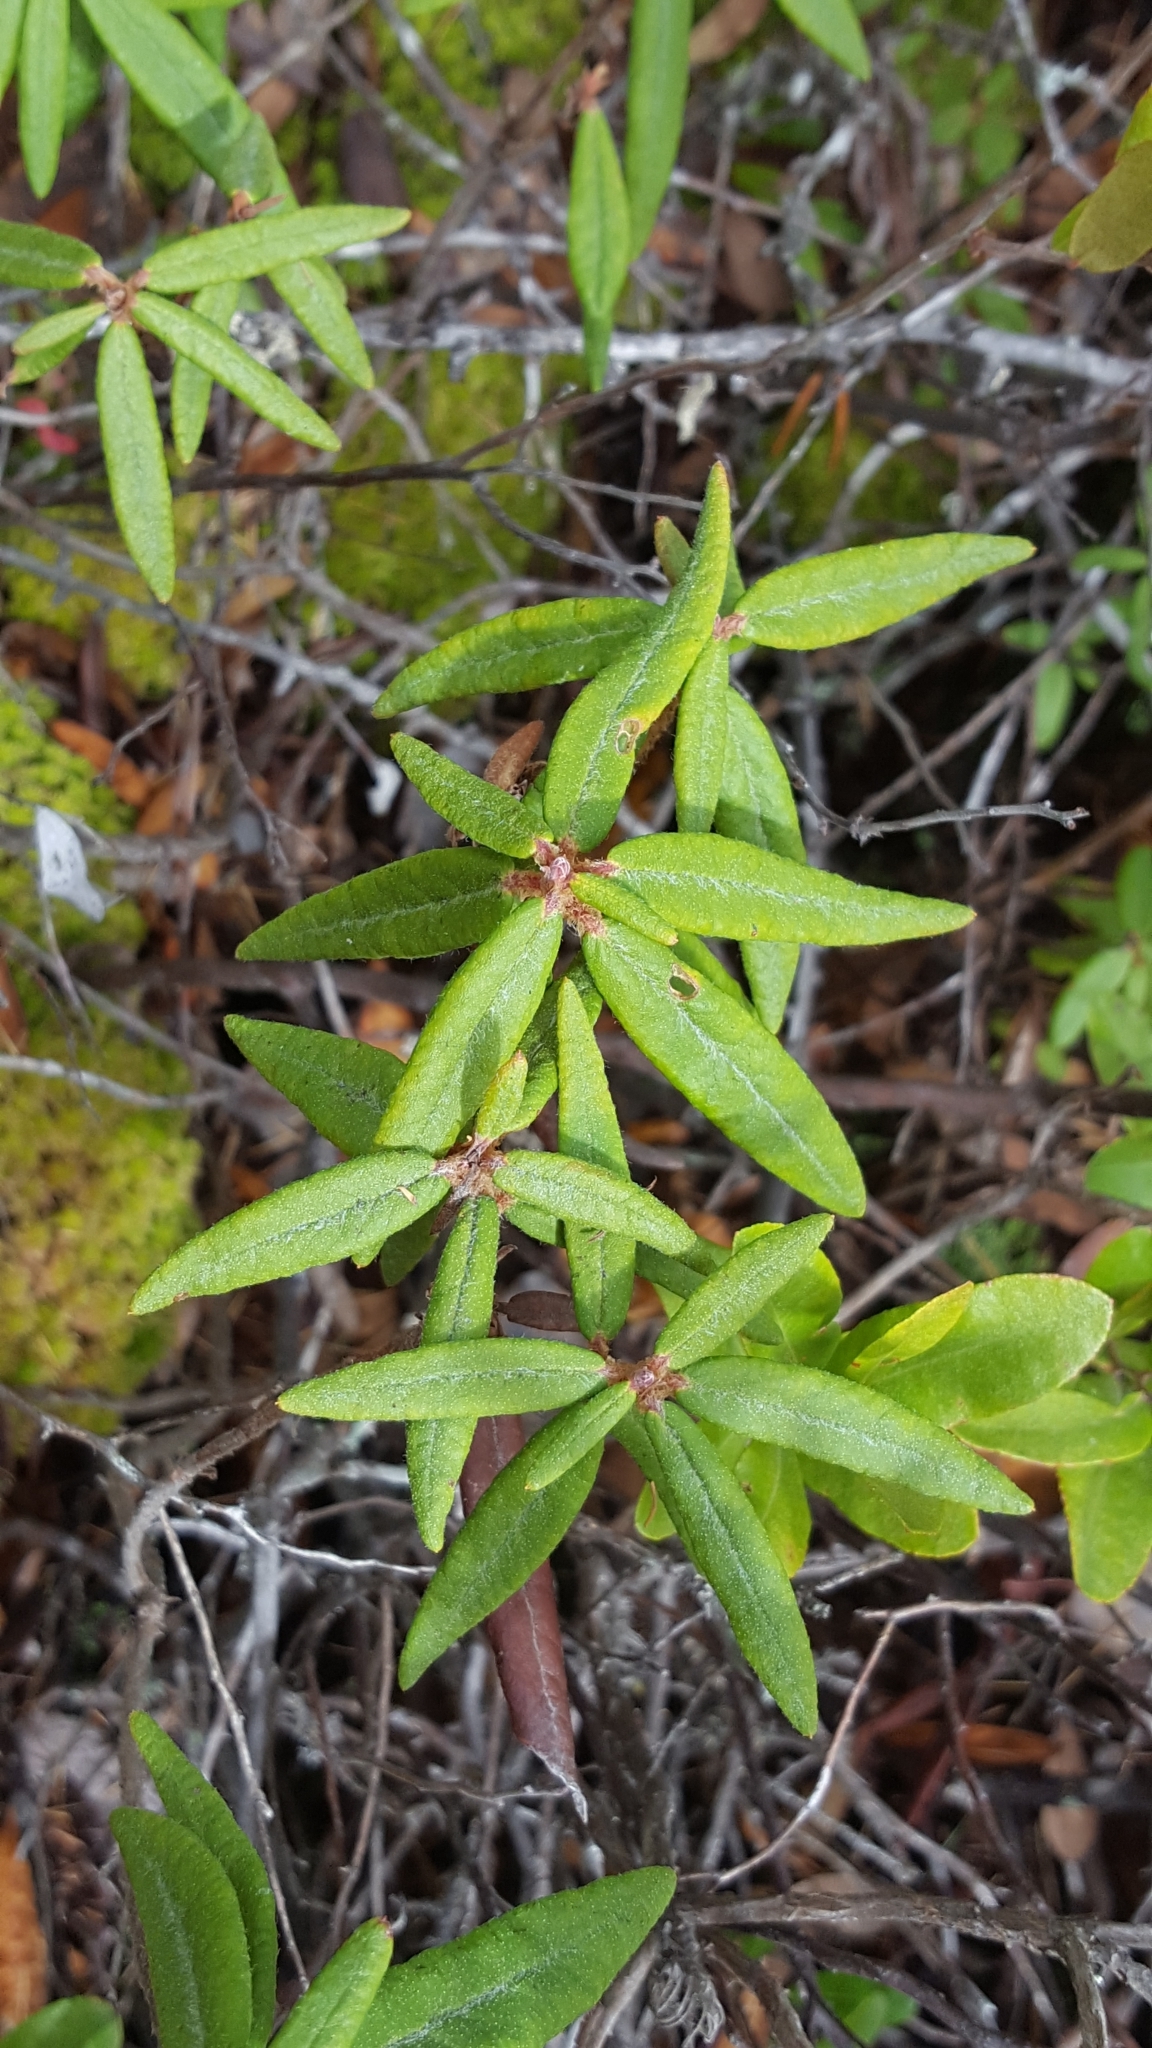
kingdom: Plantae
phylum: Tracheophyta
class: Magnoliopsida
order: Ericales
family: Ericaceae
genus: Rhododendron
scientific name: Rhododendron groenlandicum
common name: Bog labrador tea
